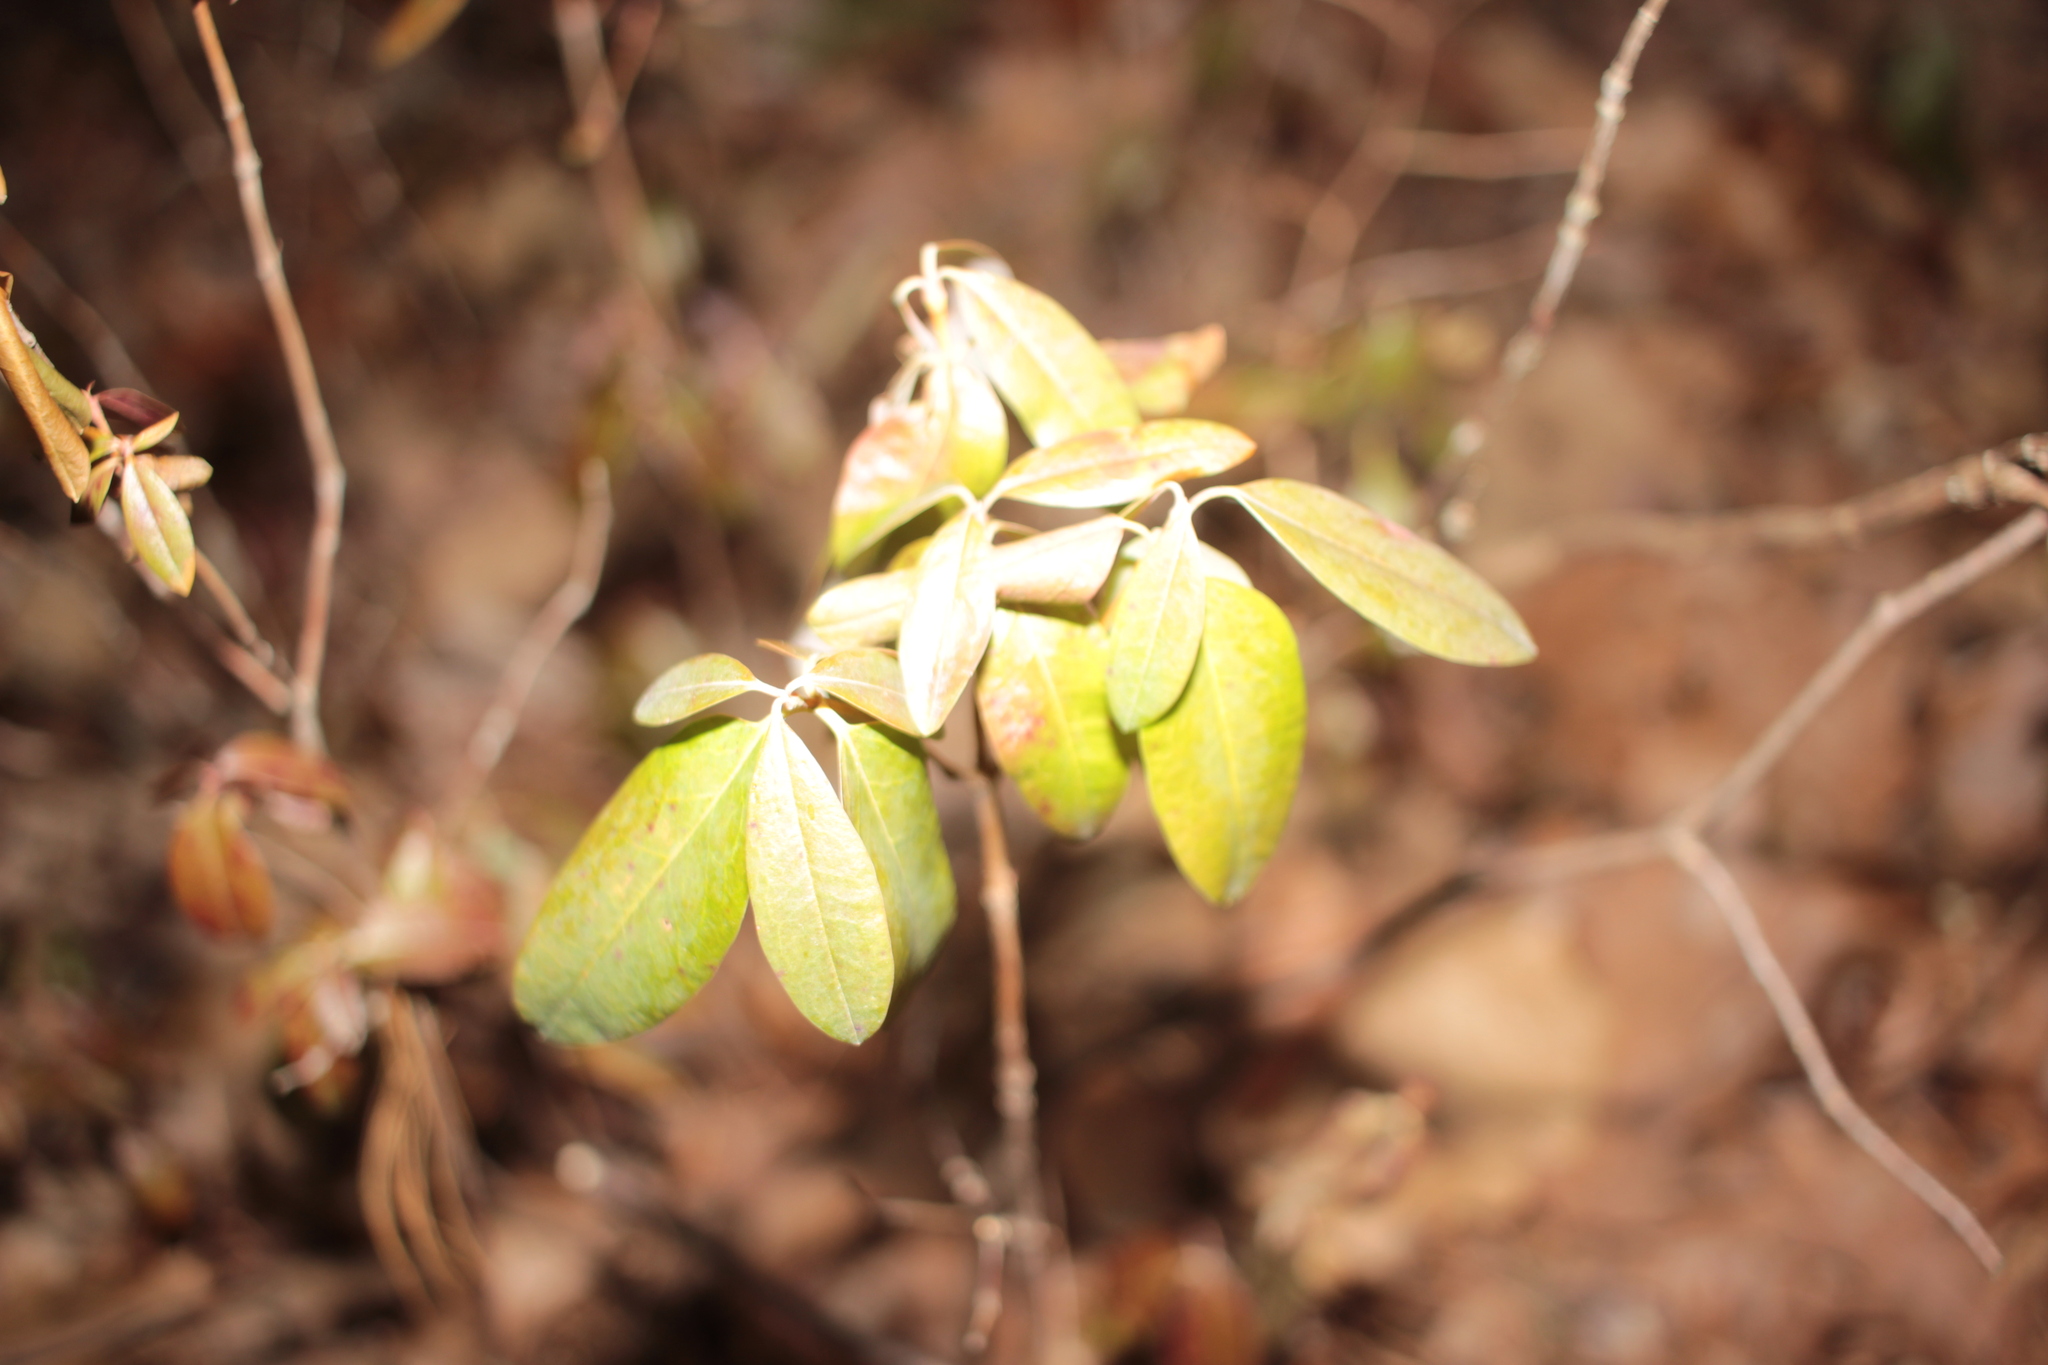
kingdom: Plantae
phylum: Tracheophyta
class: Magnoliopsida
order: Ericales
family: Ericaceae
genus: Kalmia
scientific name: Kalmia angustifolia
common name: Sheep-laurel
